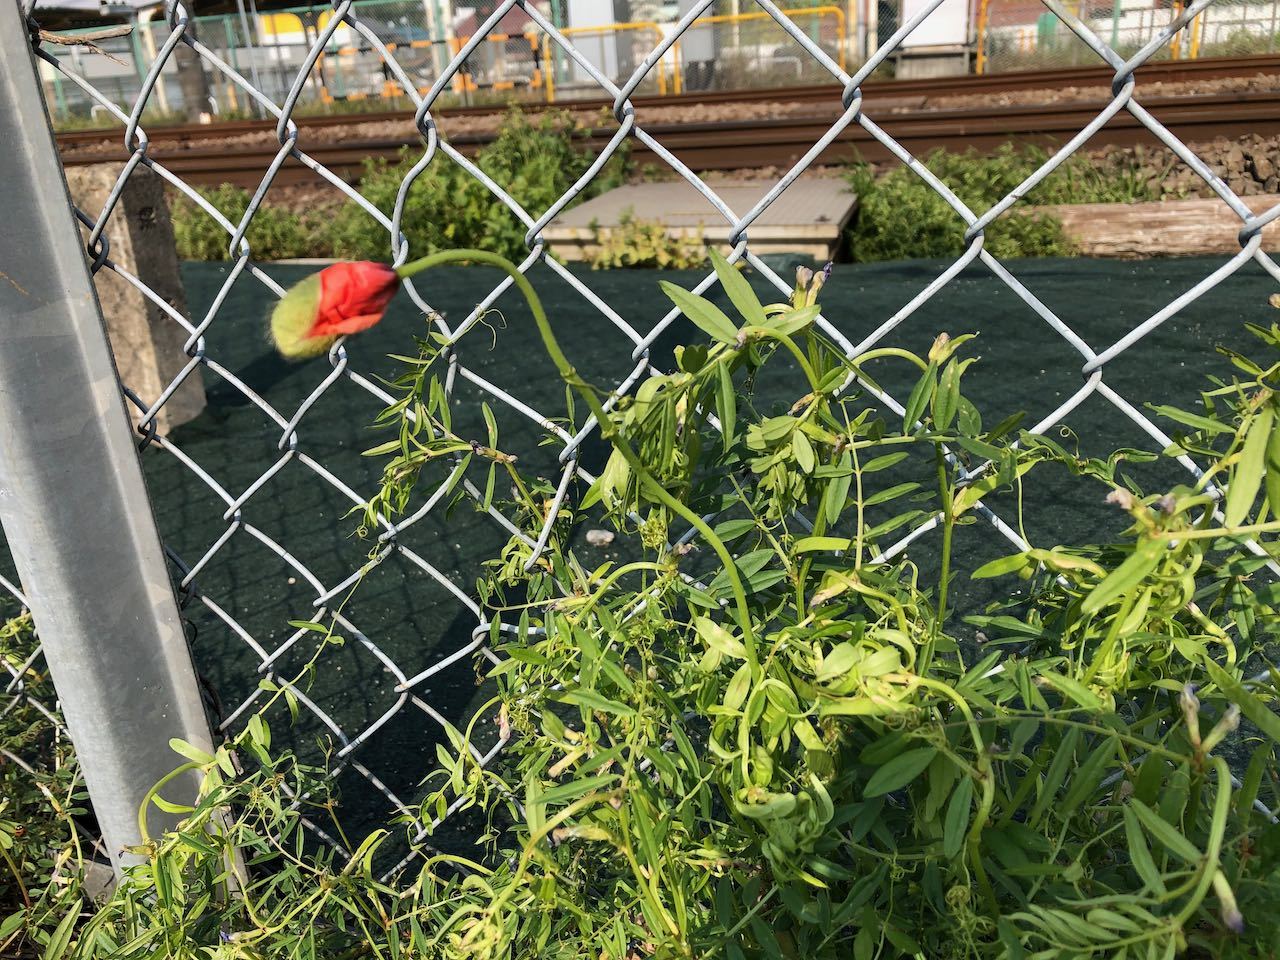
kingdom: Plantae
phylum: Tracheophyta
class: Magnoliopsida
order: Ranunculales
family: Papaveraceae
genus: Papaver
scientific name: Papaver dubium
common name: Long-headed poppy
